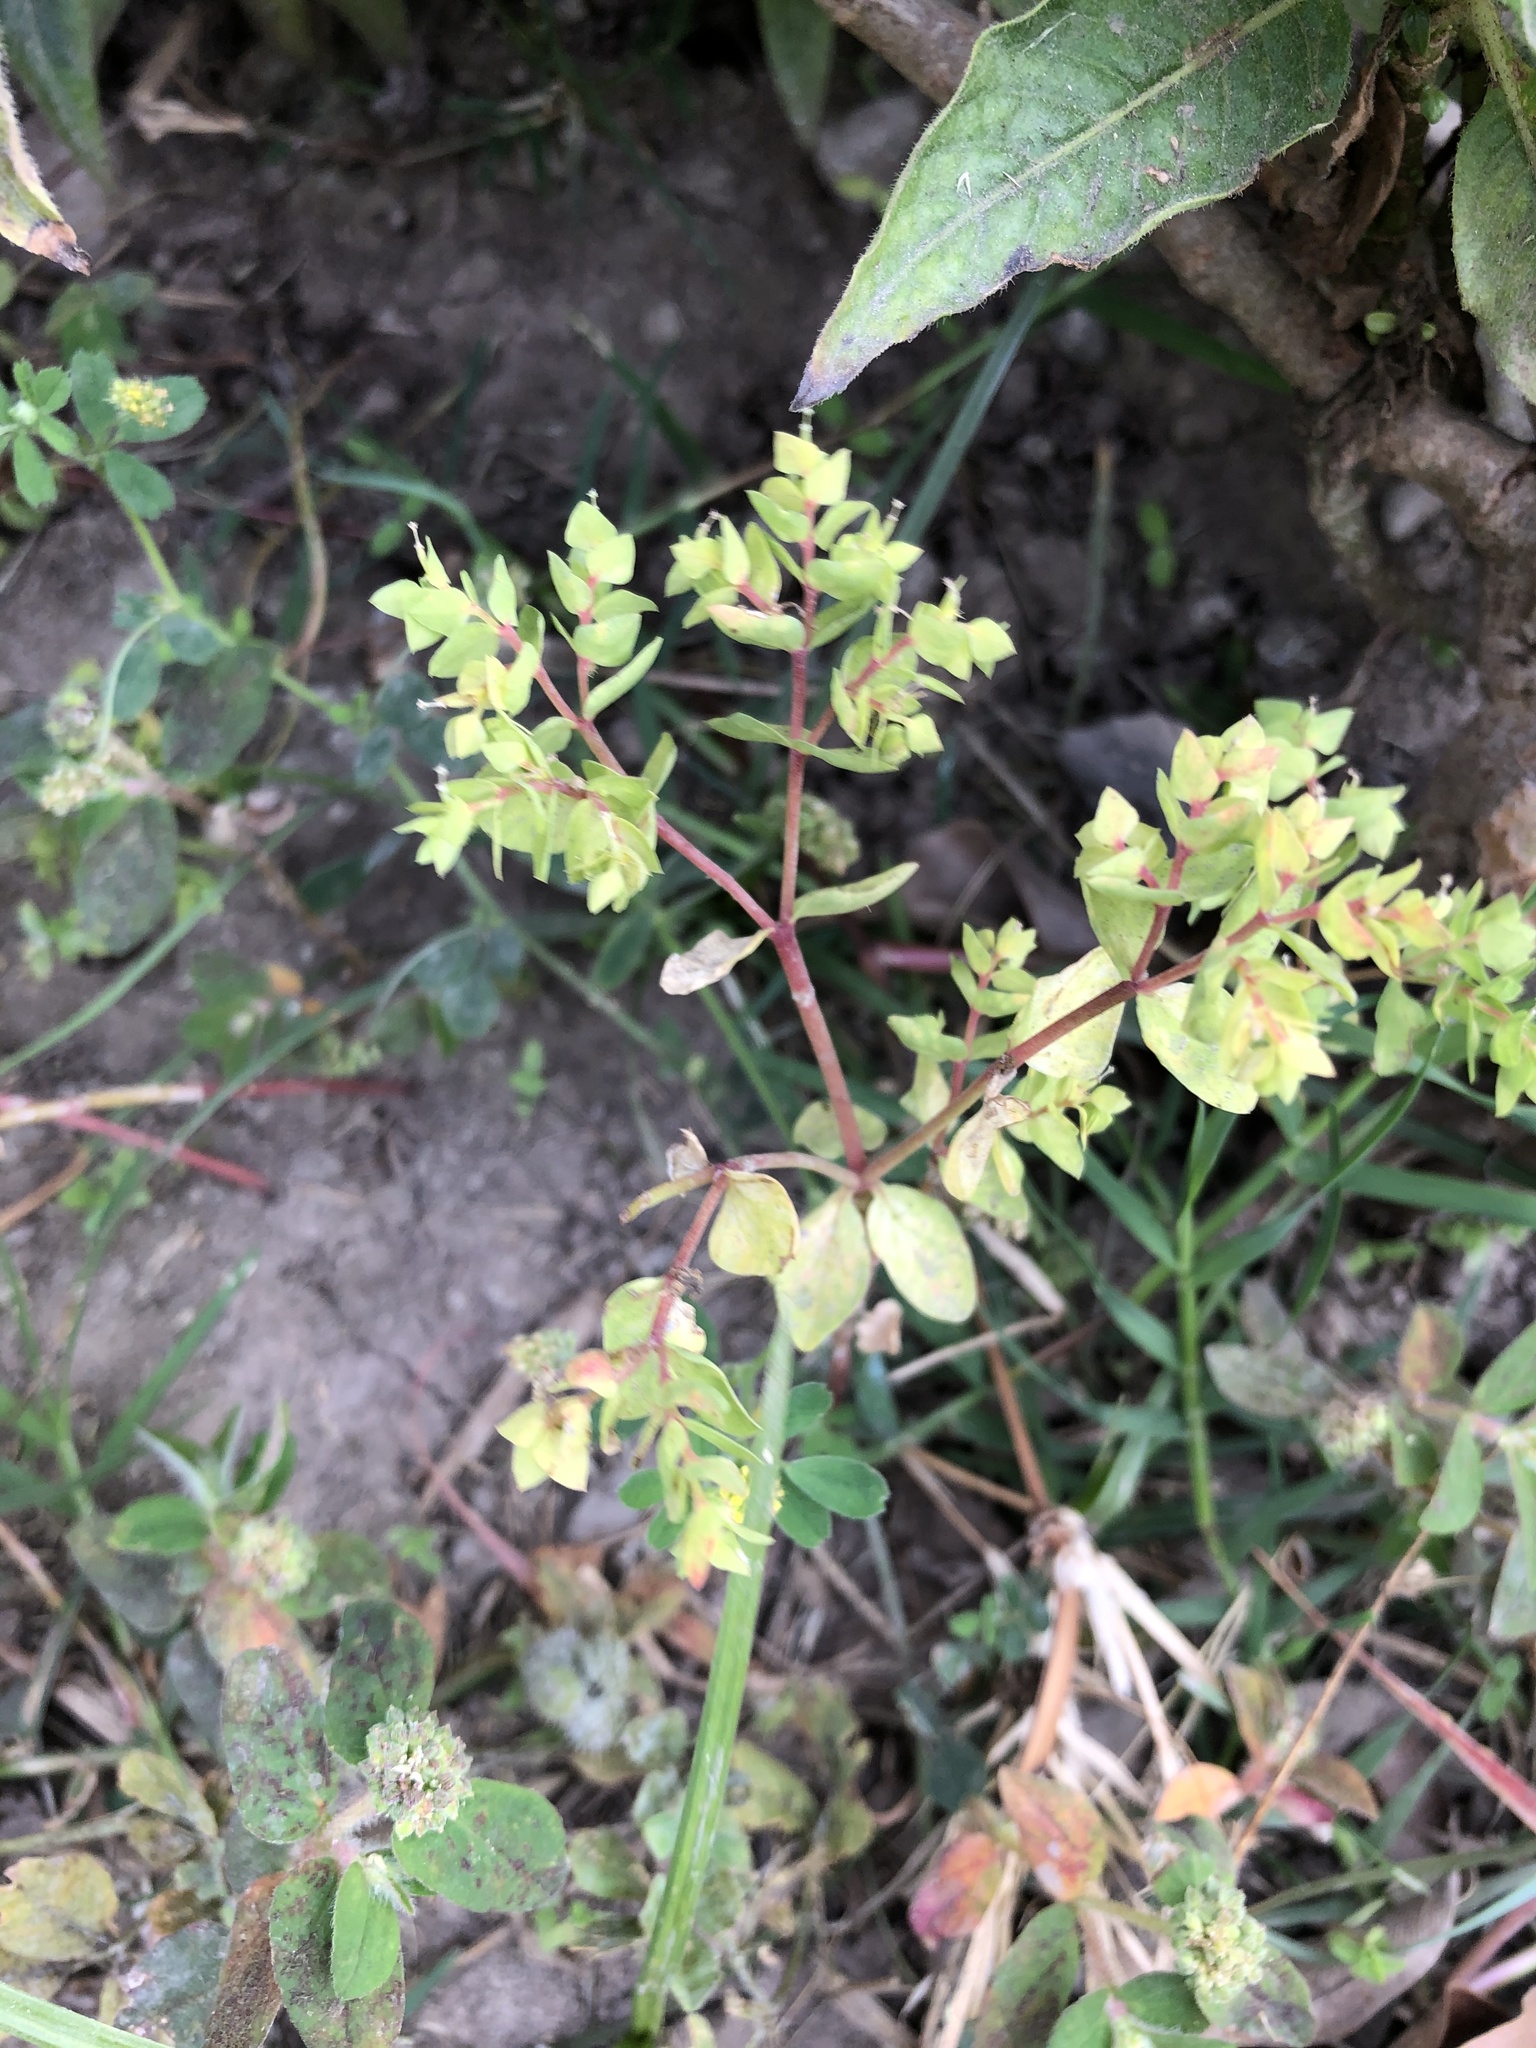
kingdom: Plantae
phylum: Tracheophyta
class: Magnoliopsida
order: Malpighiales
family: Euphorbiaceae
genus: Euphorbia
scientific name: Euphorbia peplus
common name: Petty spurge
